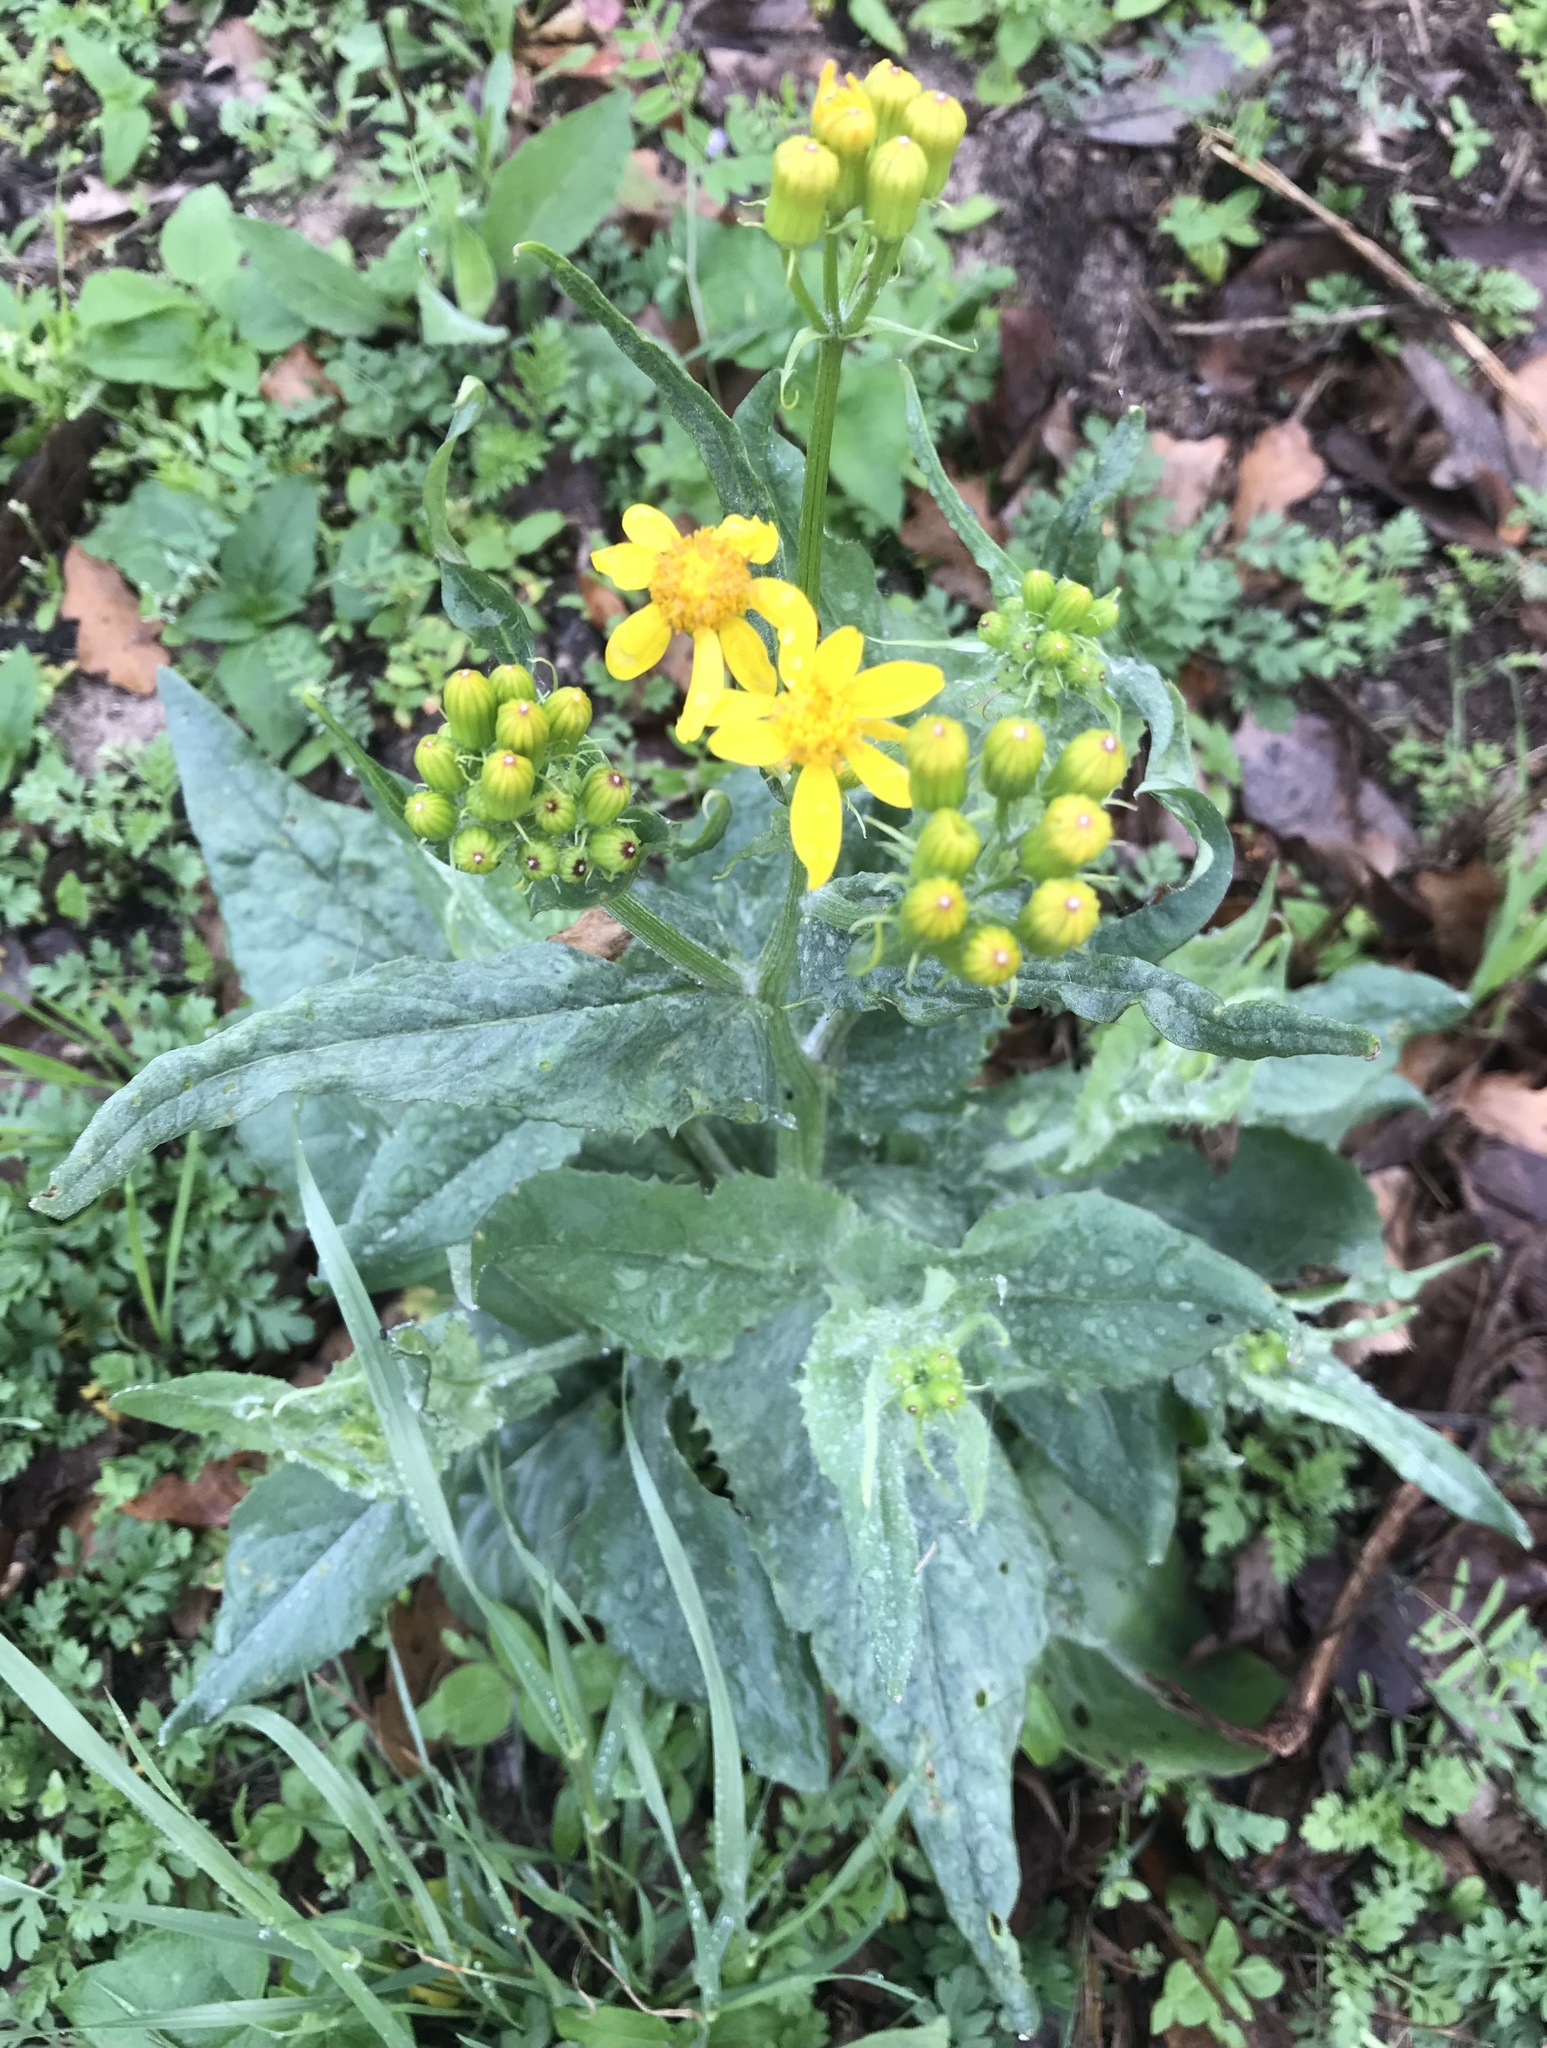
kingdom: Plantae
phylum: Tracheophyta
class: Magnoliopsida
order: Asterales
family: Asteraceae
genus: Senecio
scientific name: Senecio ampullaceus
